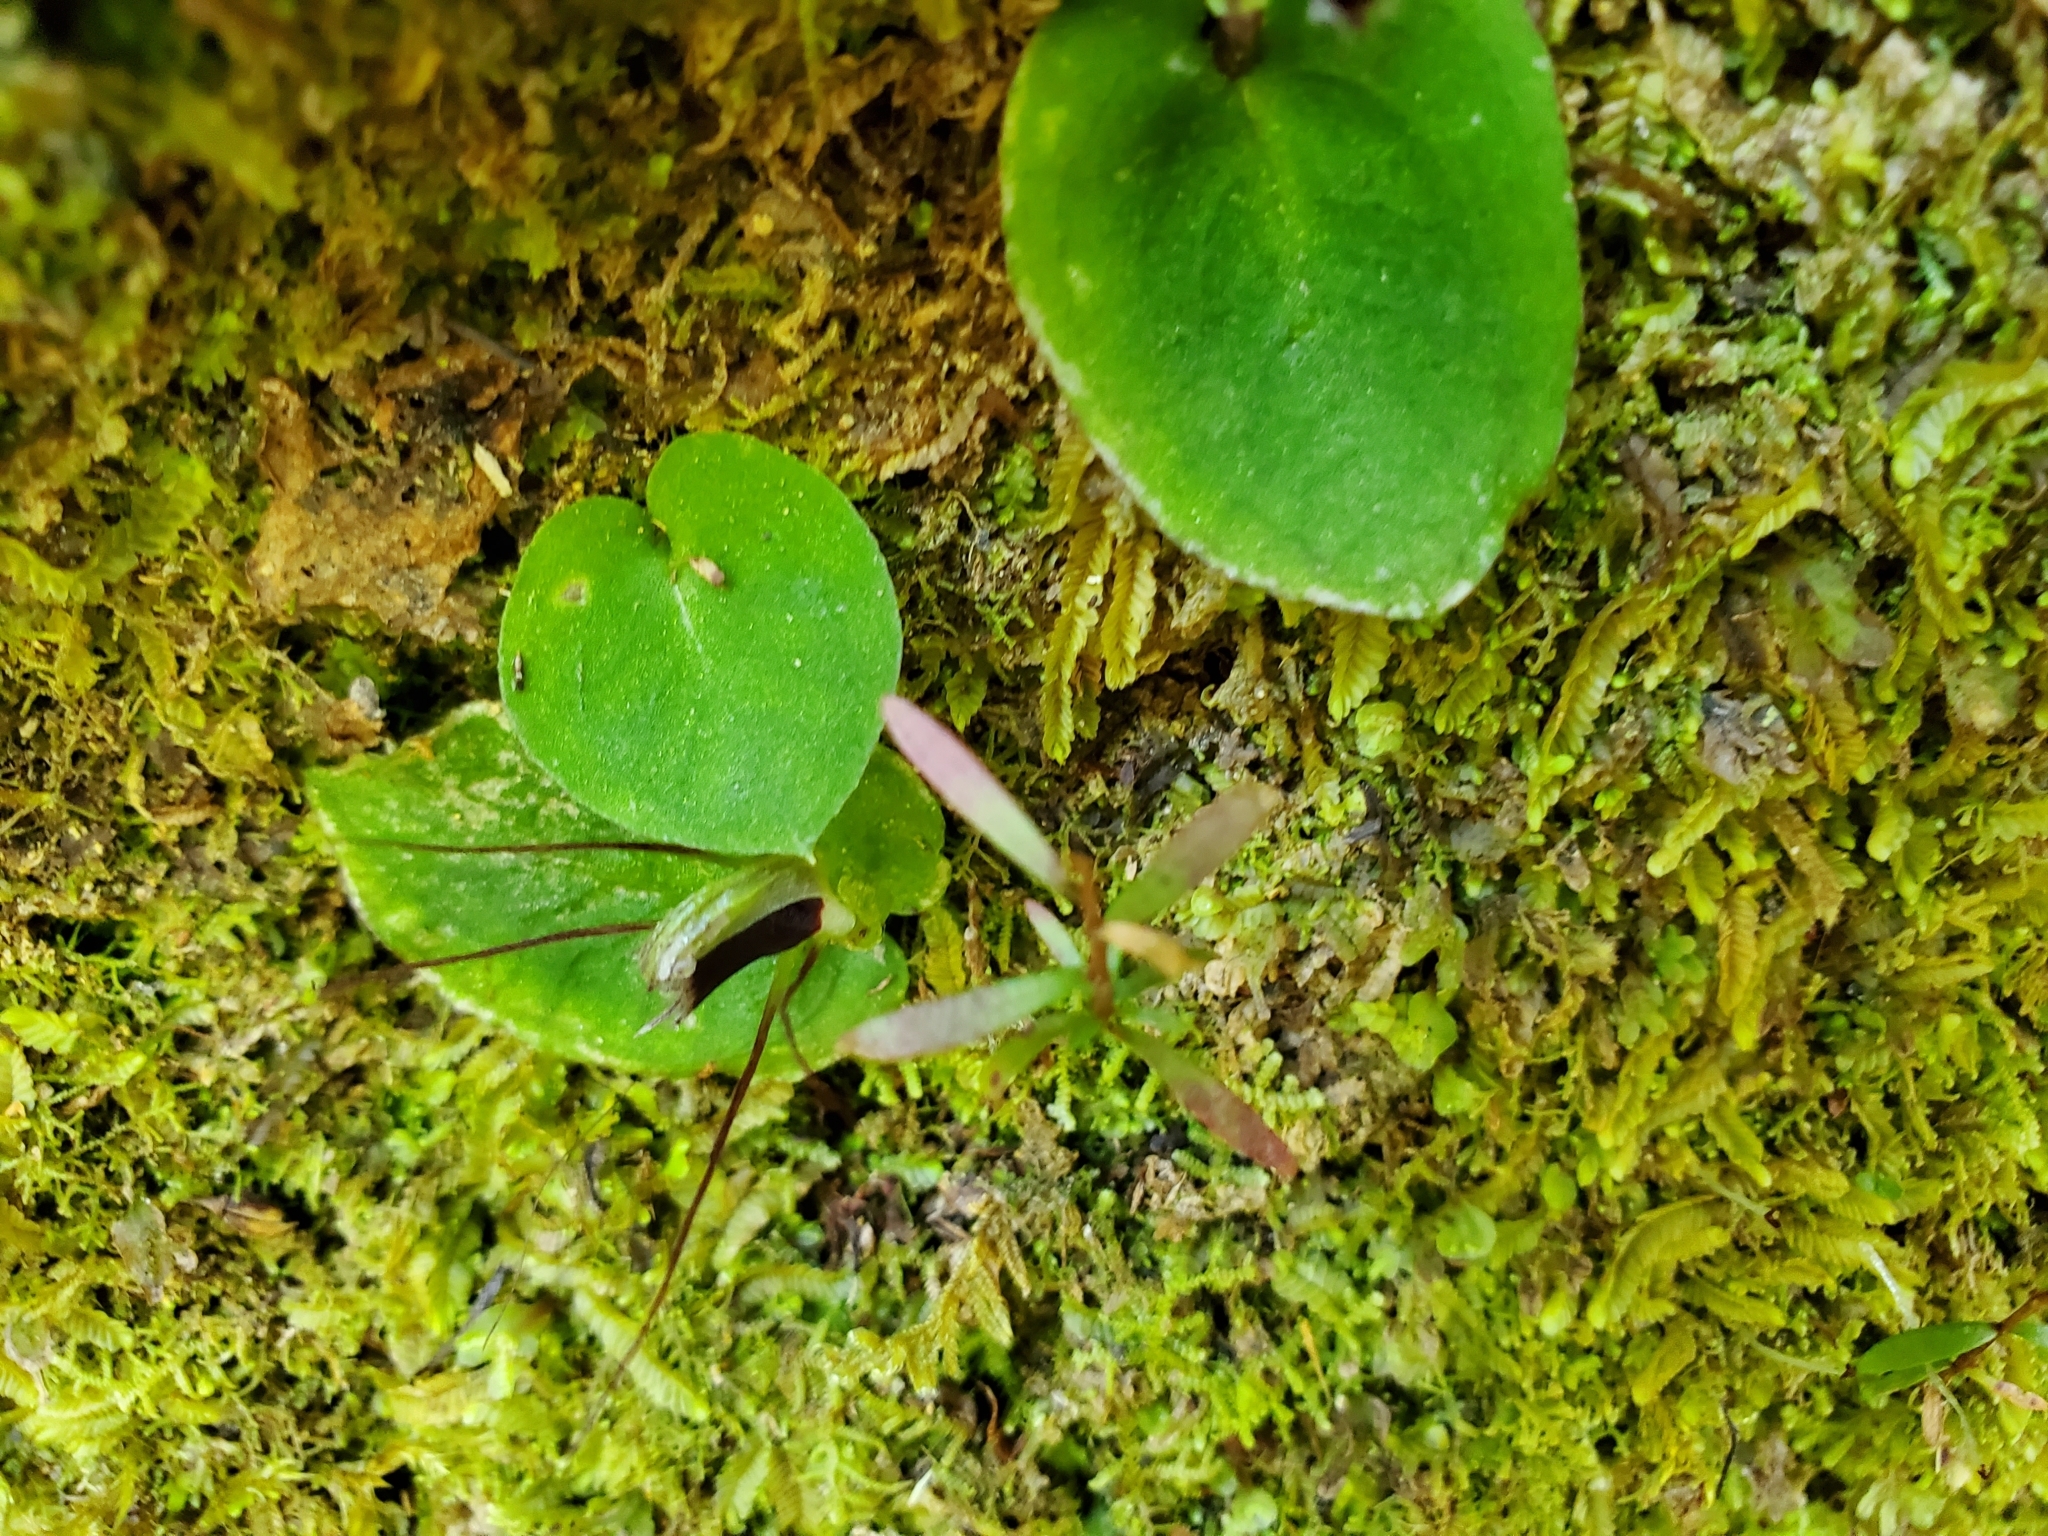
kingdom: Plantae
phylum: Tracheophyta
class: Liliopsida
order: Asparagales
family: Orchidaceae
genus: Corybas
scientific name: Corybas oblongus
